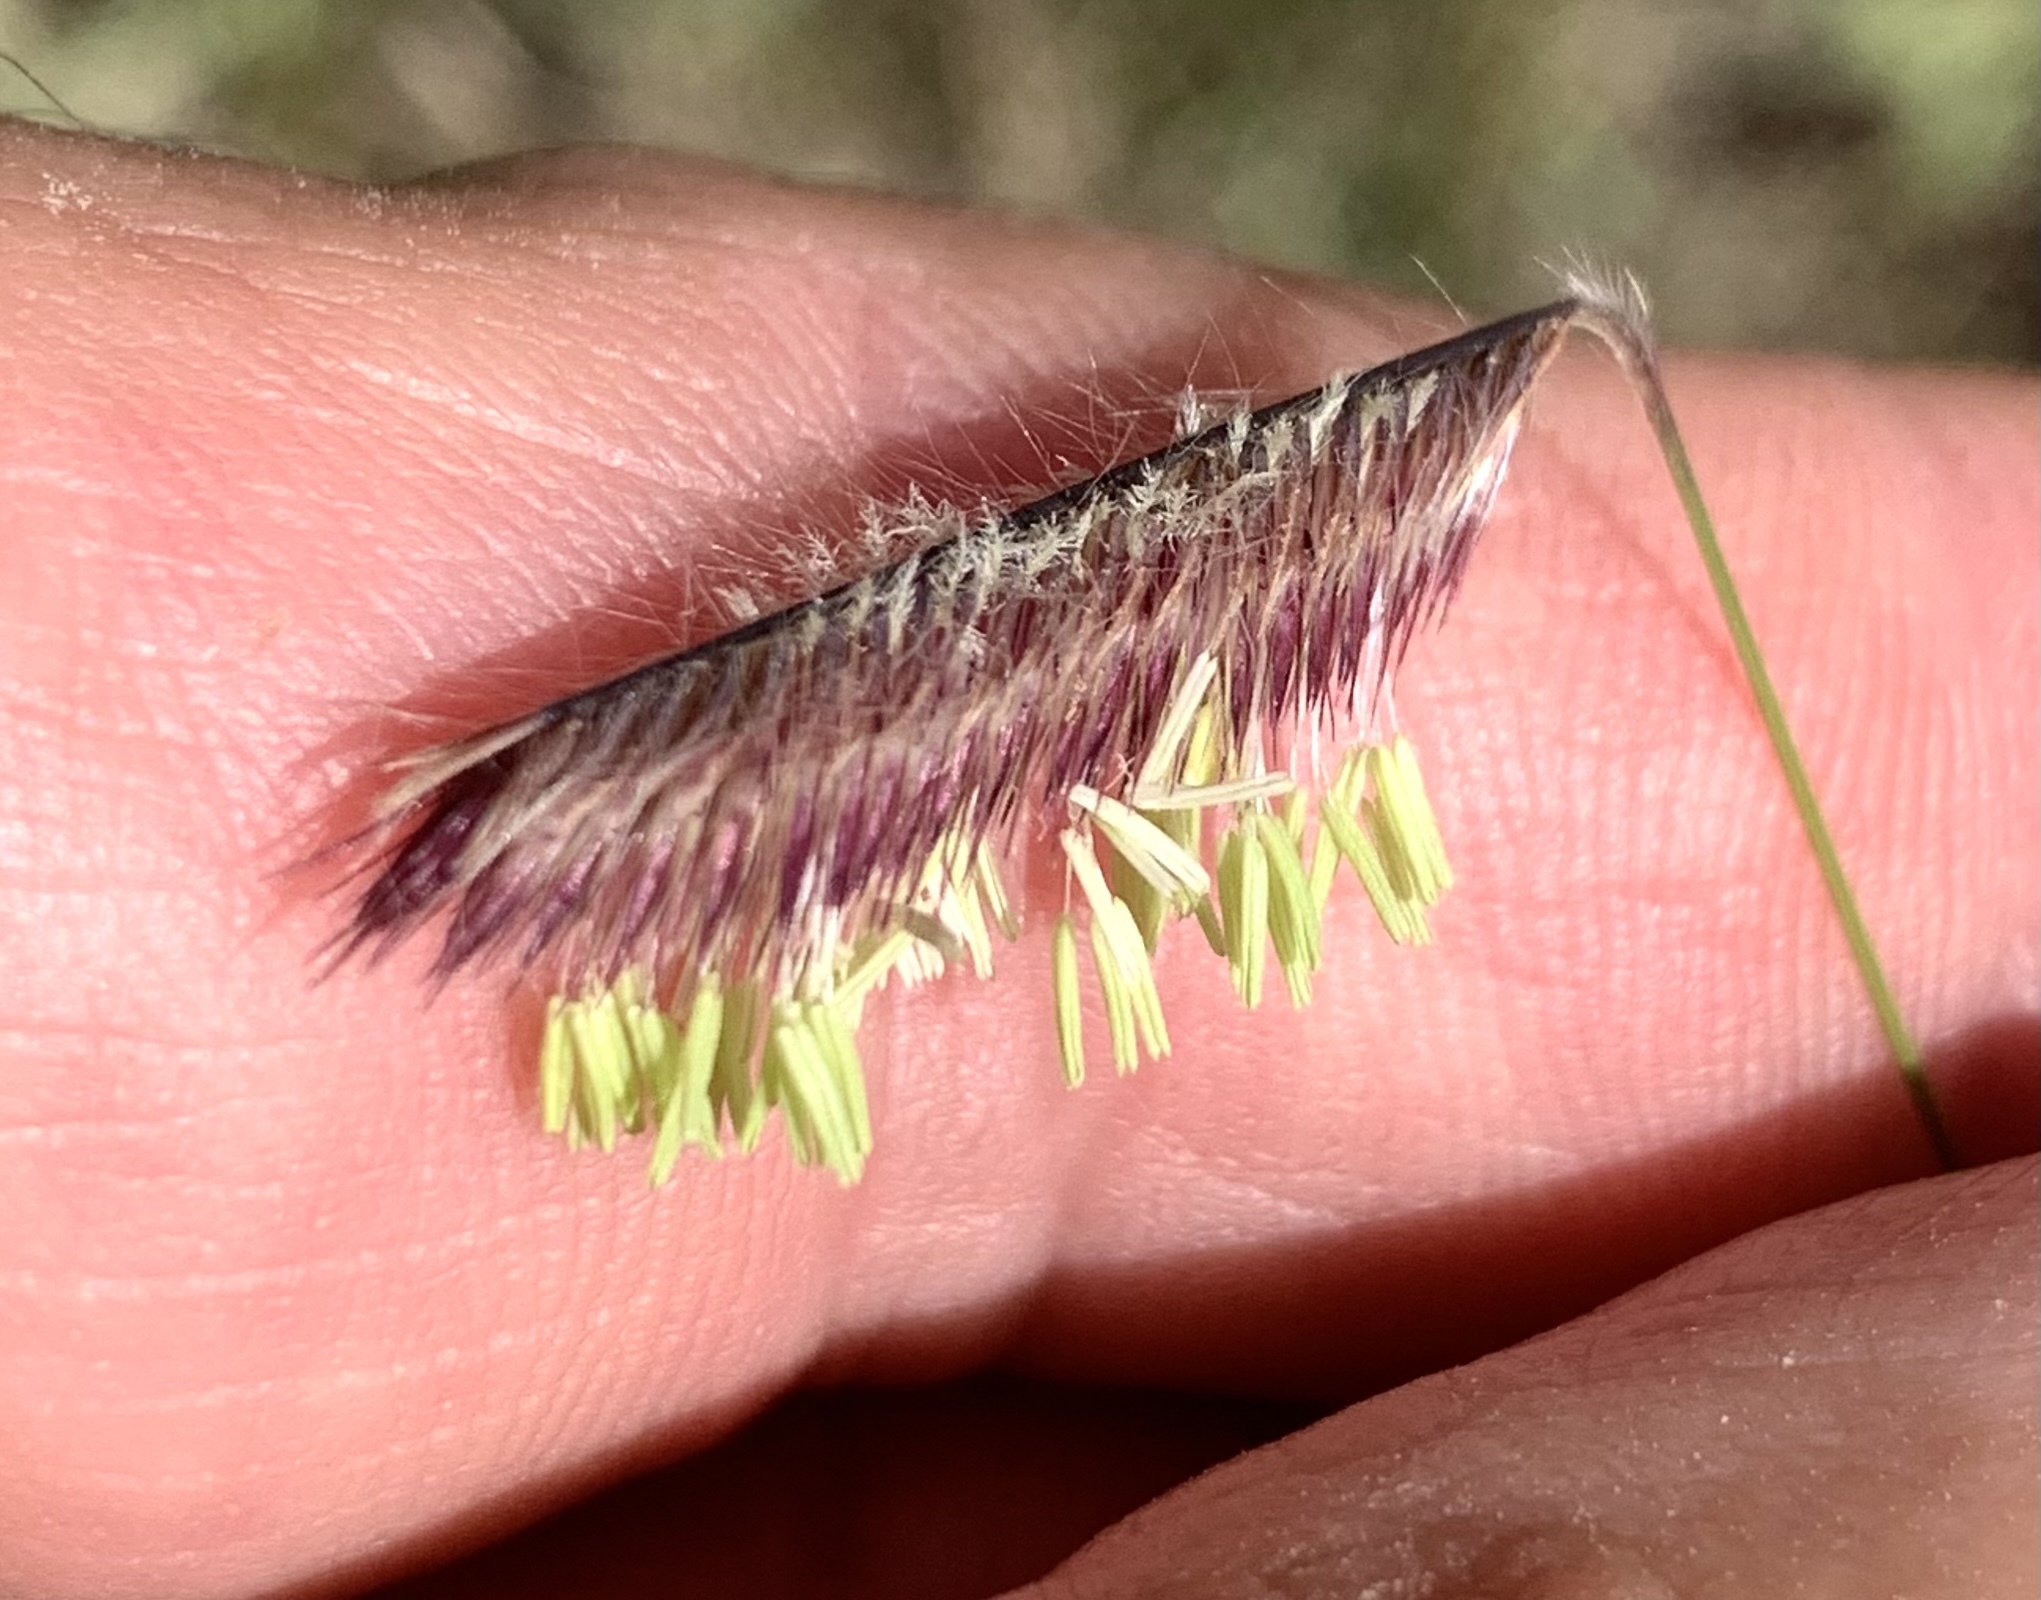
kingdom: Plantae
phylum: Tracheophyta
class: Liliopsida
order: Poales
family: Poaceae
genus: Bouteloua
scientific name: Bouteloua gracilis
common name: Blue grama
